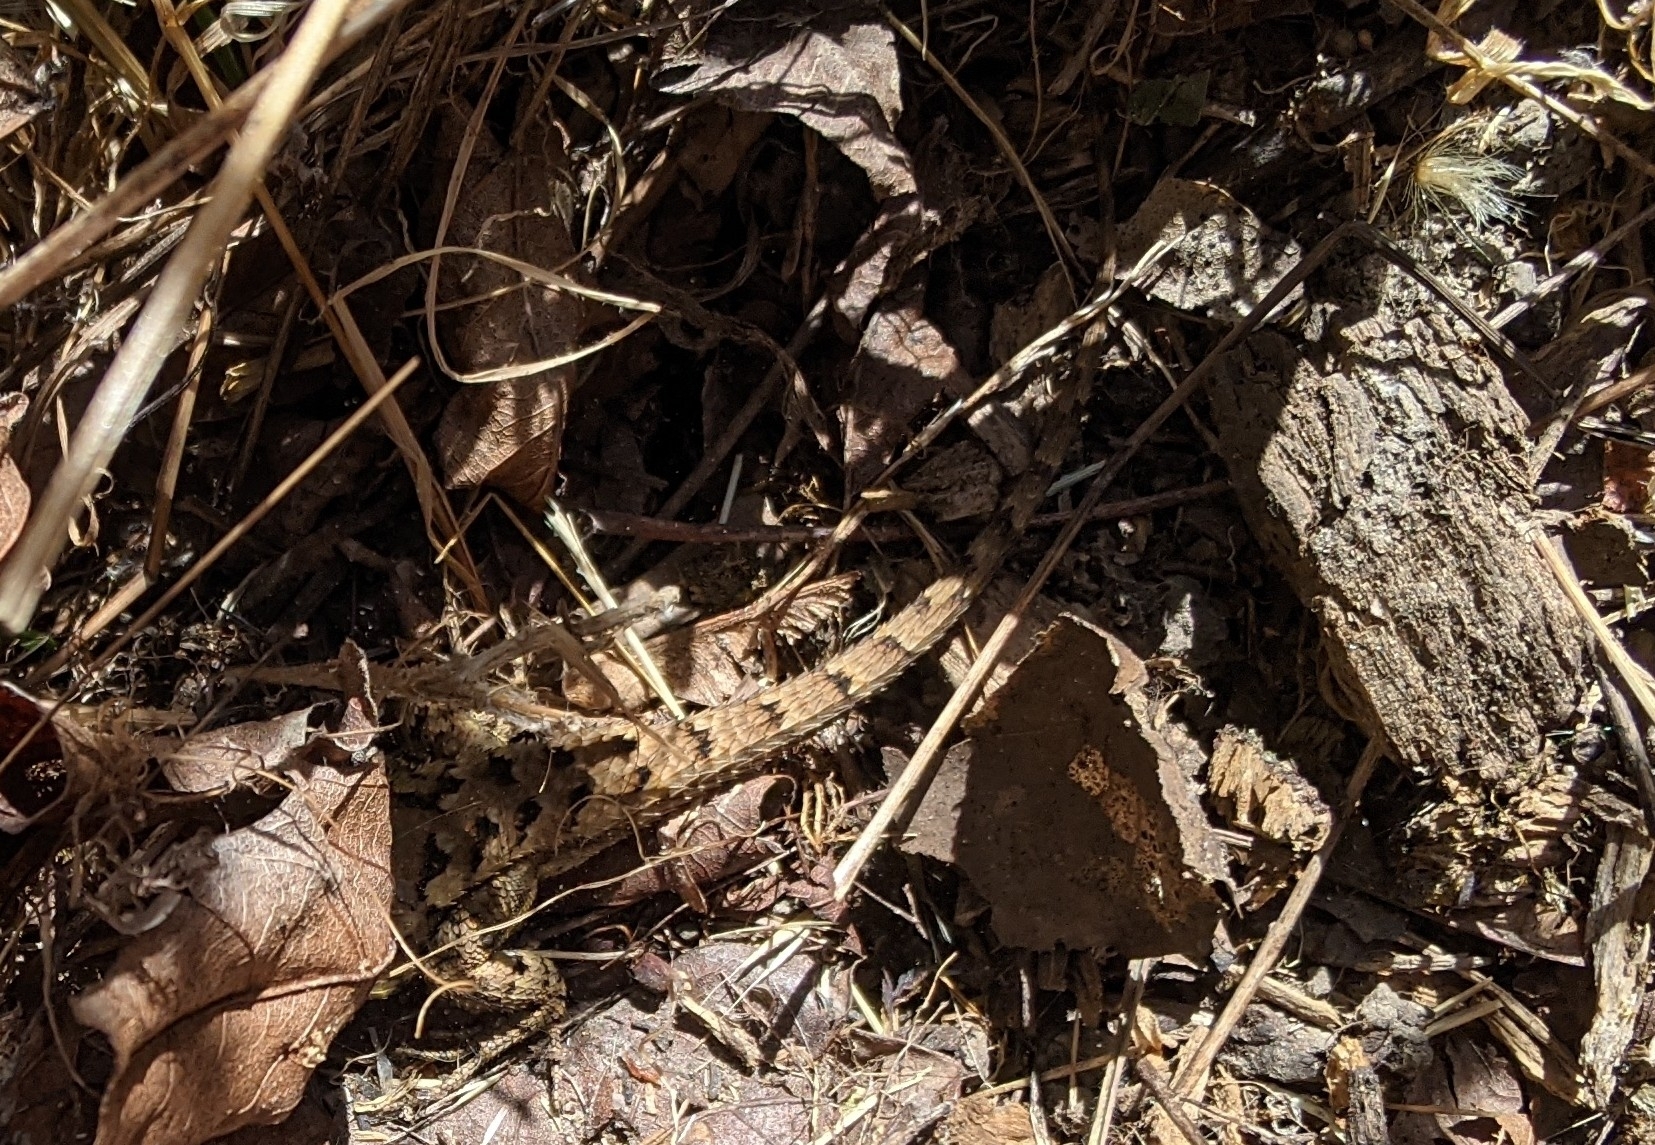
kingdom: Animalia
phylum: Chordata
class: Squamata
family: Phrynosomatidae
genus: Sceloporus
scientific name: Sceloporus occidentalis
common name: Western fence lizard
